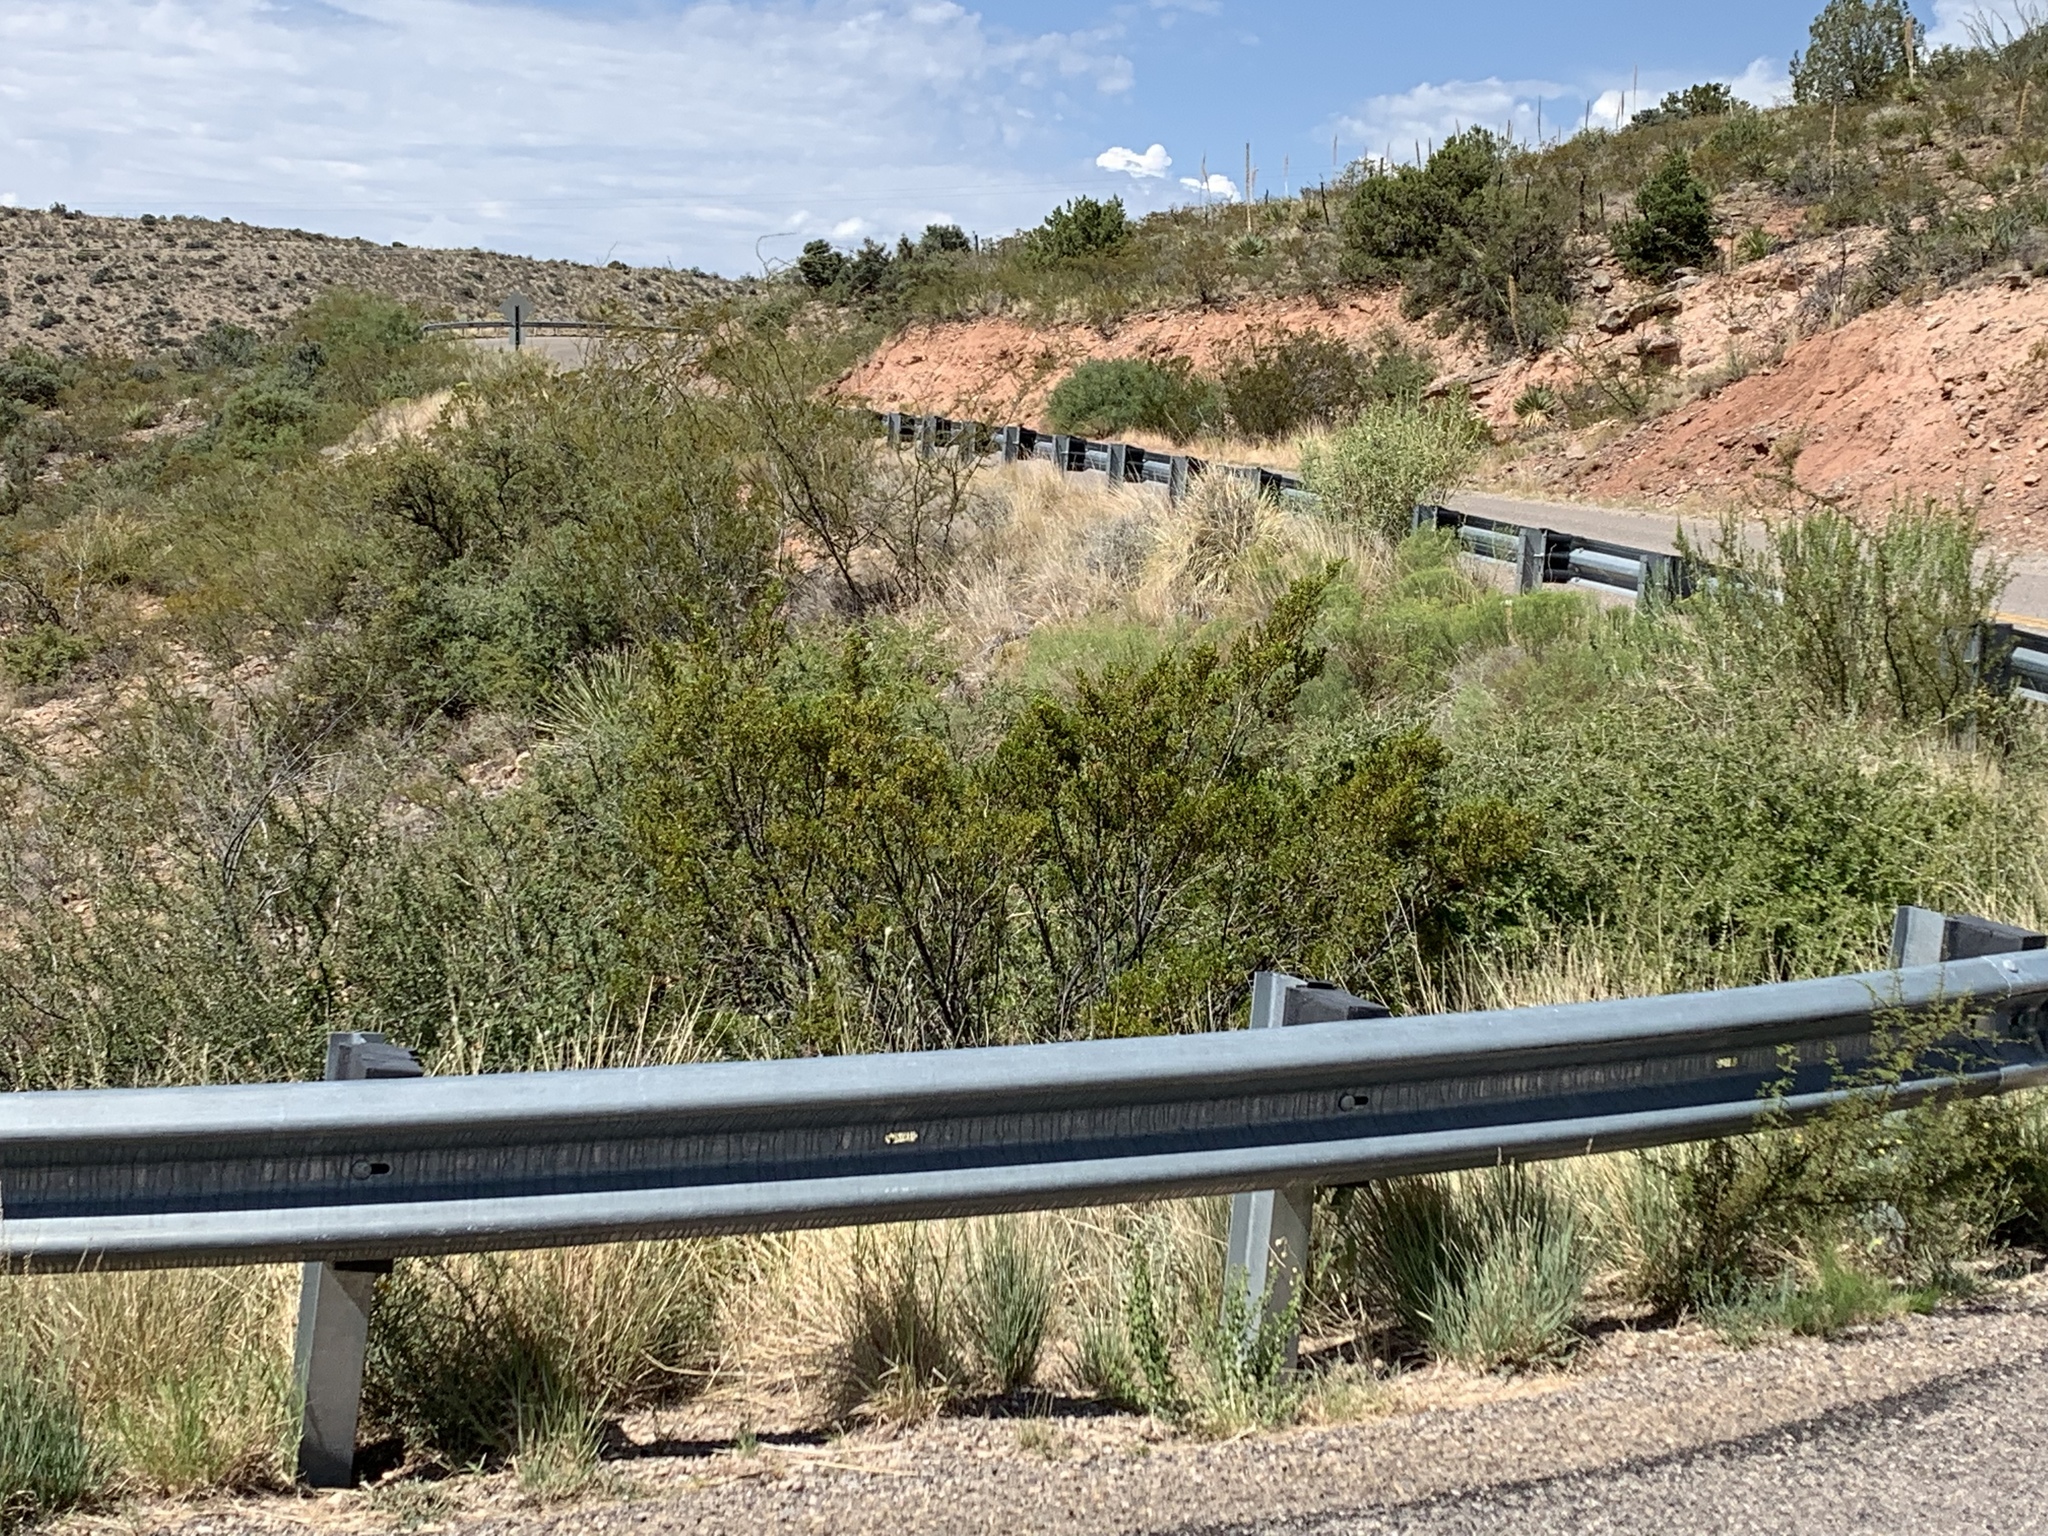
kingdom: Plantae
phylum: Tracheophyta
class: Magnoliopsida
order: Zygophyllales
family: Zygophyllaceae
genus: Larrea
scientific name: Larrea tridentata
